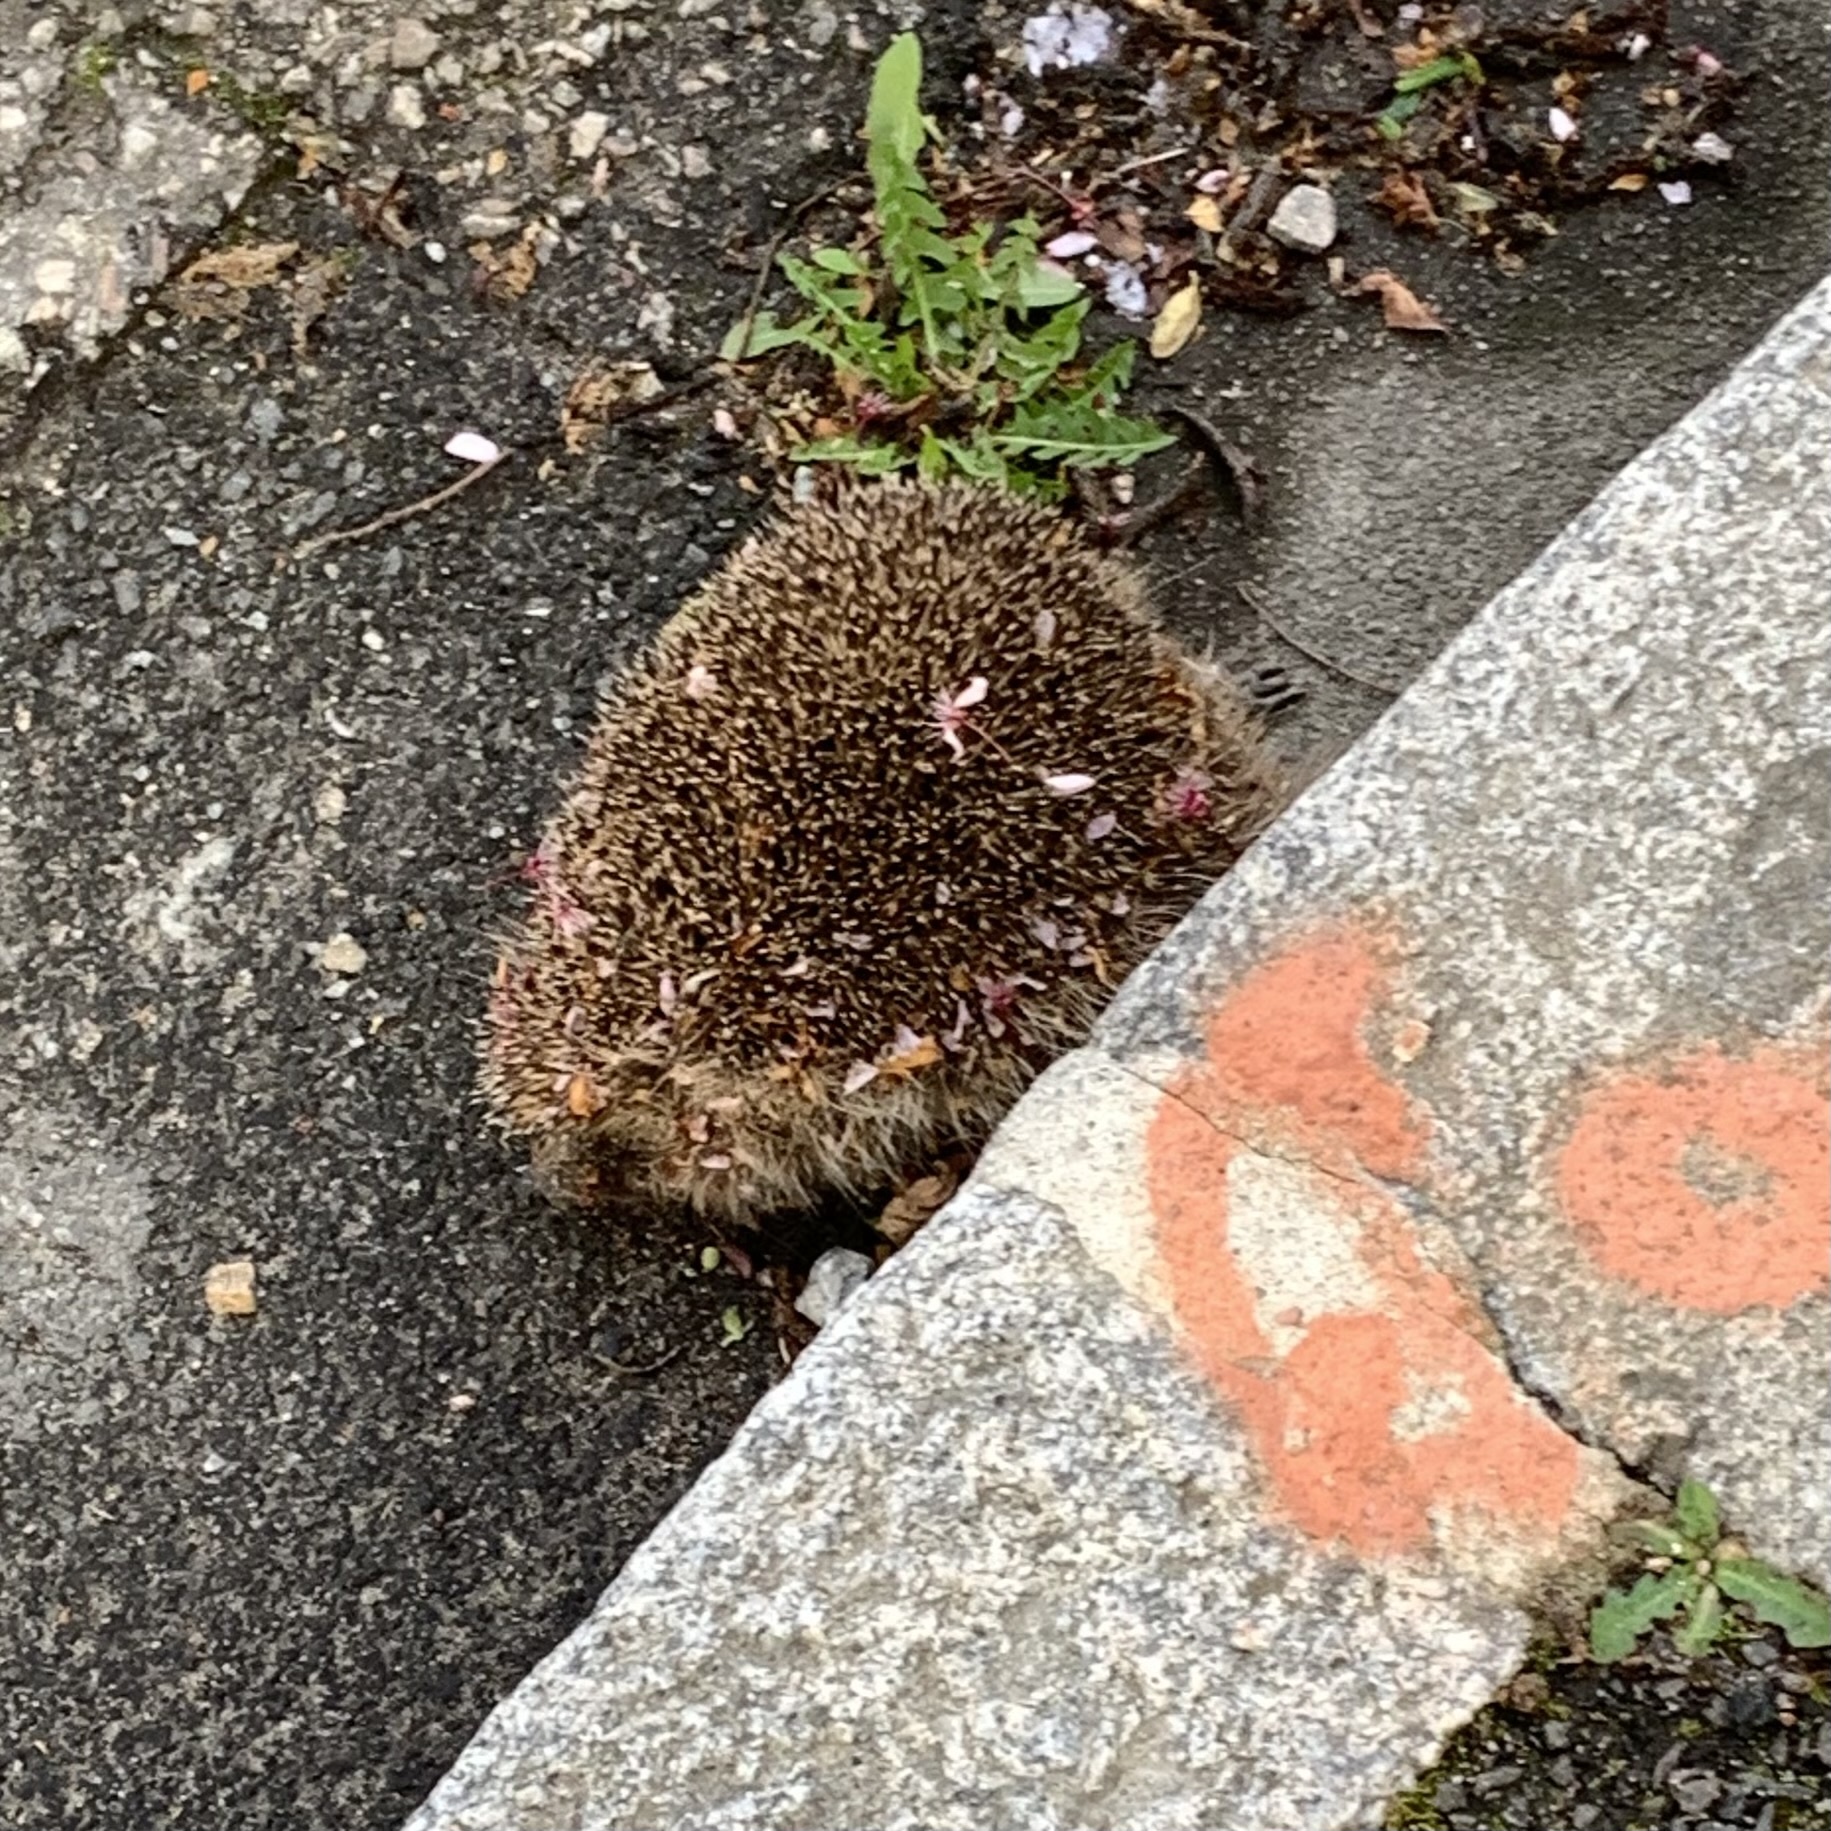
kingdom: Animalia
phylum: Chordata
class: Mammalia
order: Erinaceomorpha
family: Erinaceidae
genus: Erinaceus
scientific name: Erinaceus europaeus
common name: West european hedgehog
